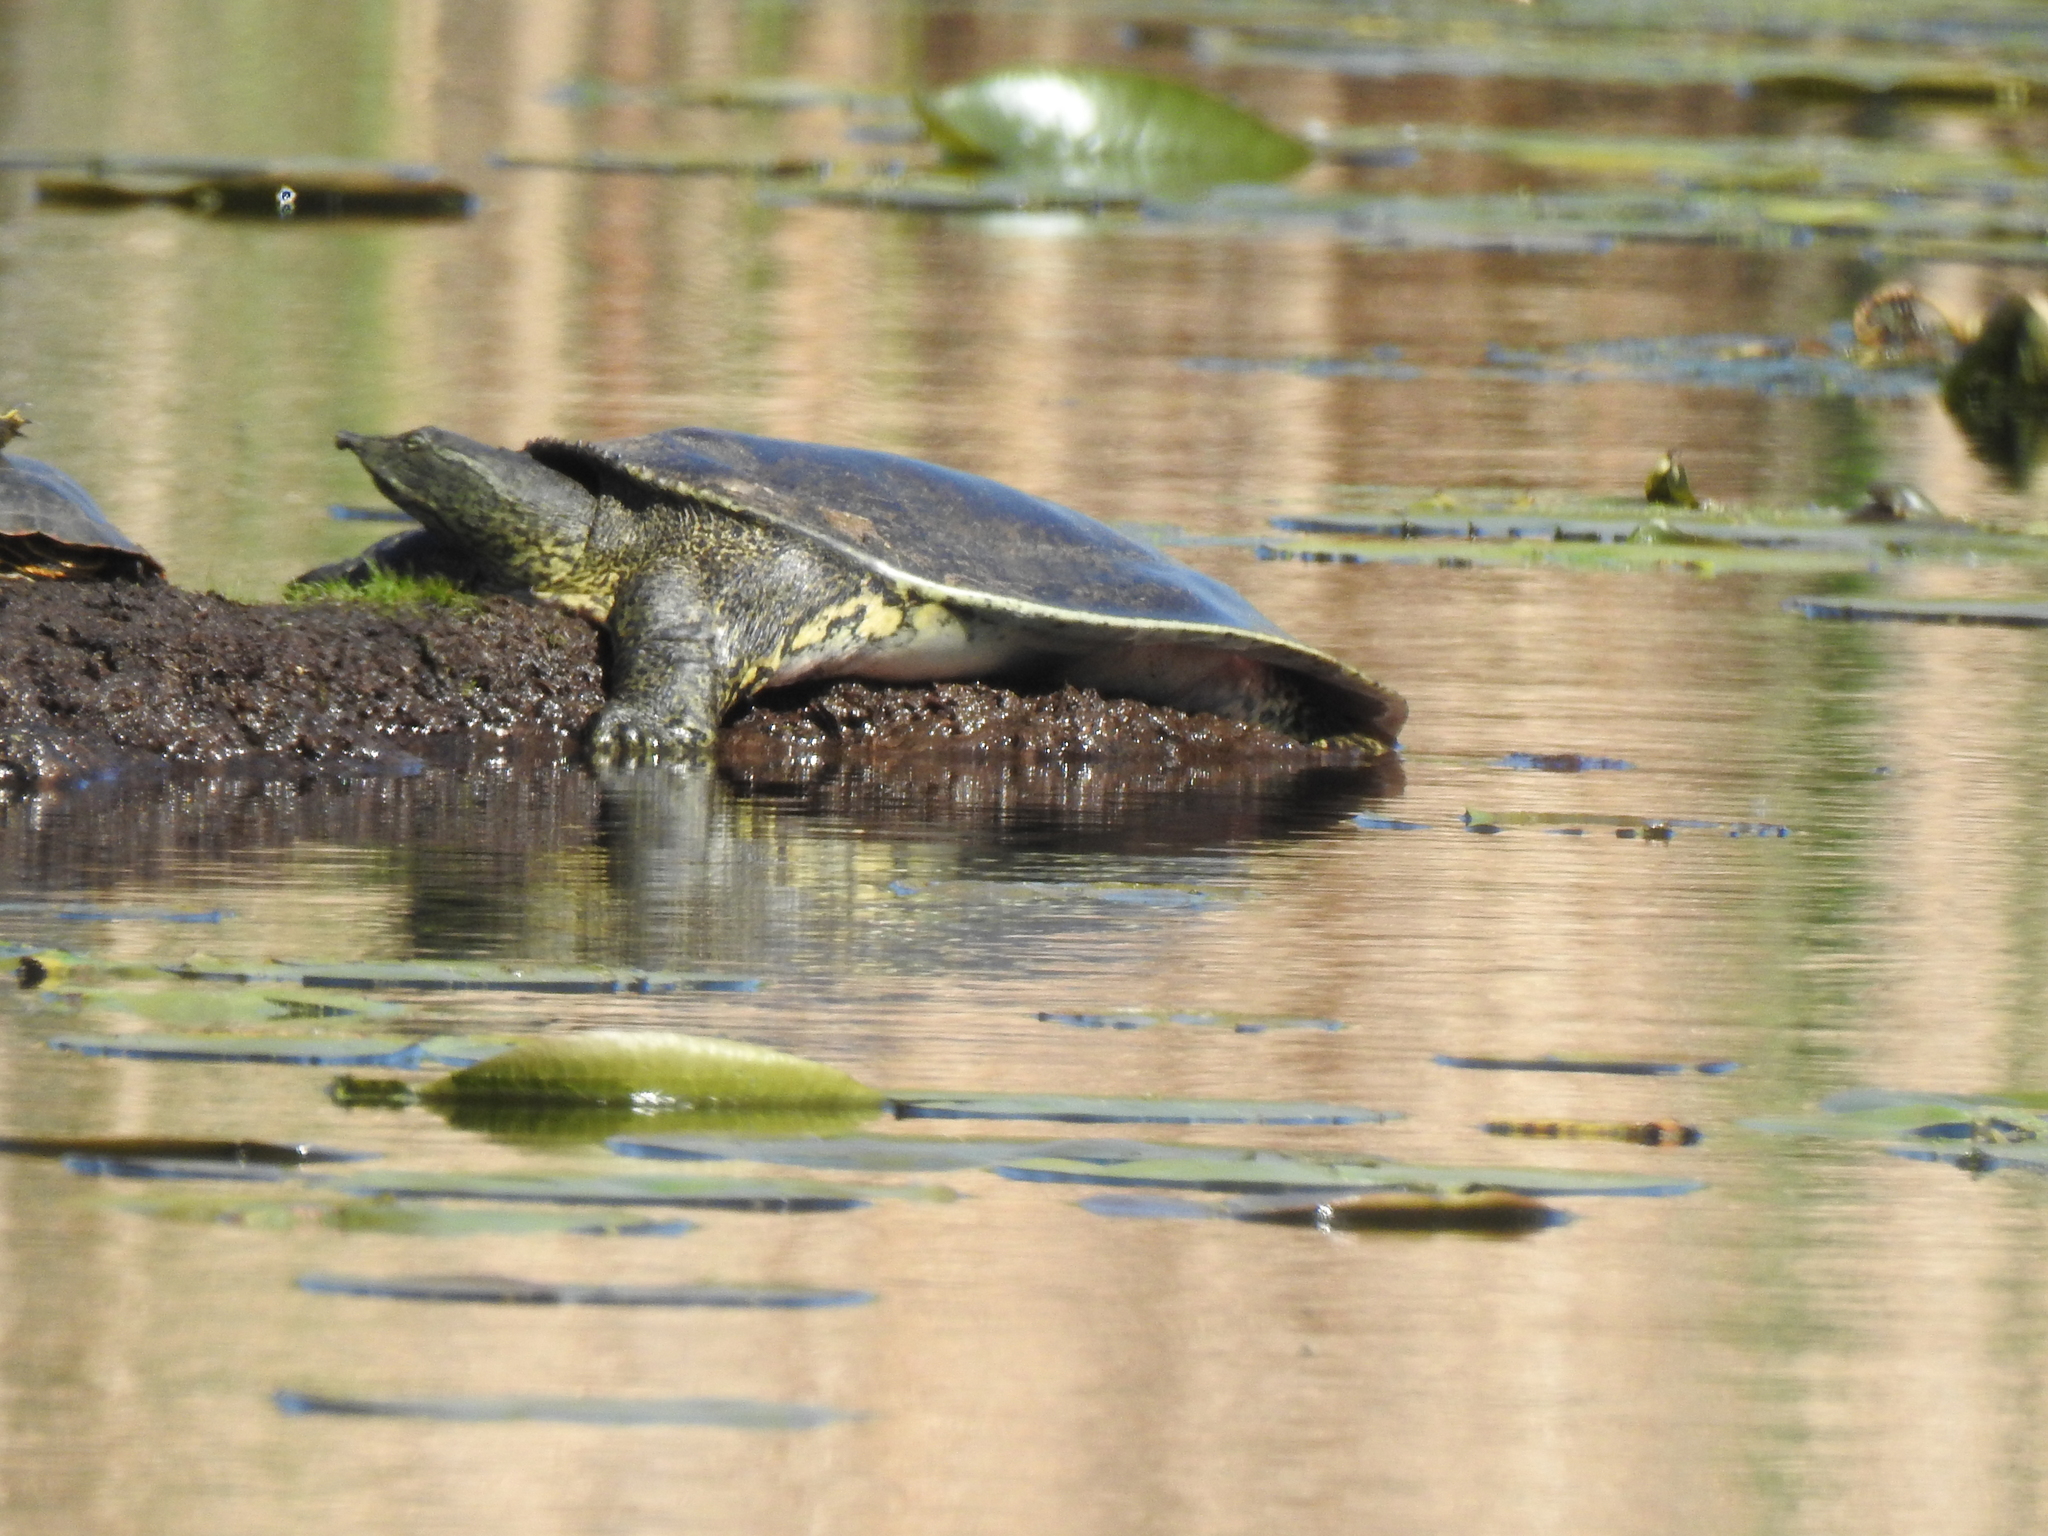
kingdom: Animalia
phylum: Chordata
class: Testudines
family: Trionychidae
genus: Apalone
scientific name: Apalone spinifera
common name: Spiny softshell turtle
